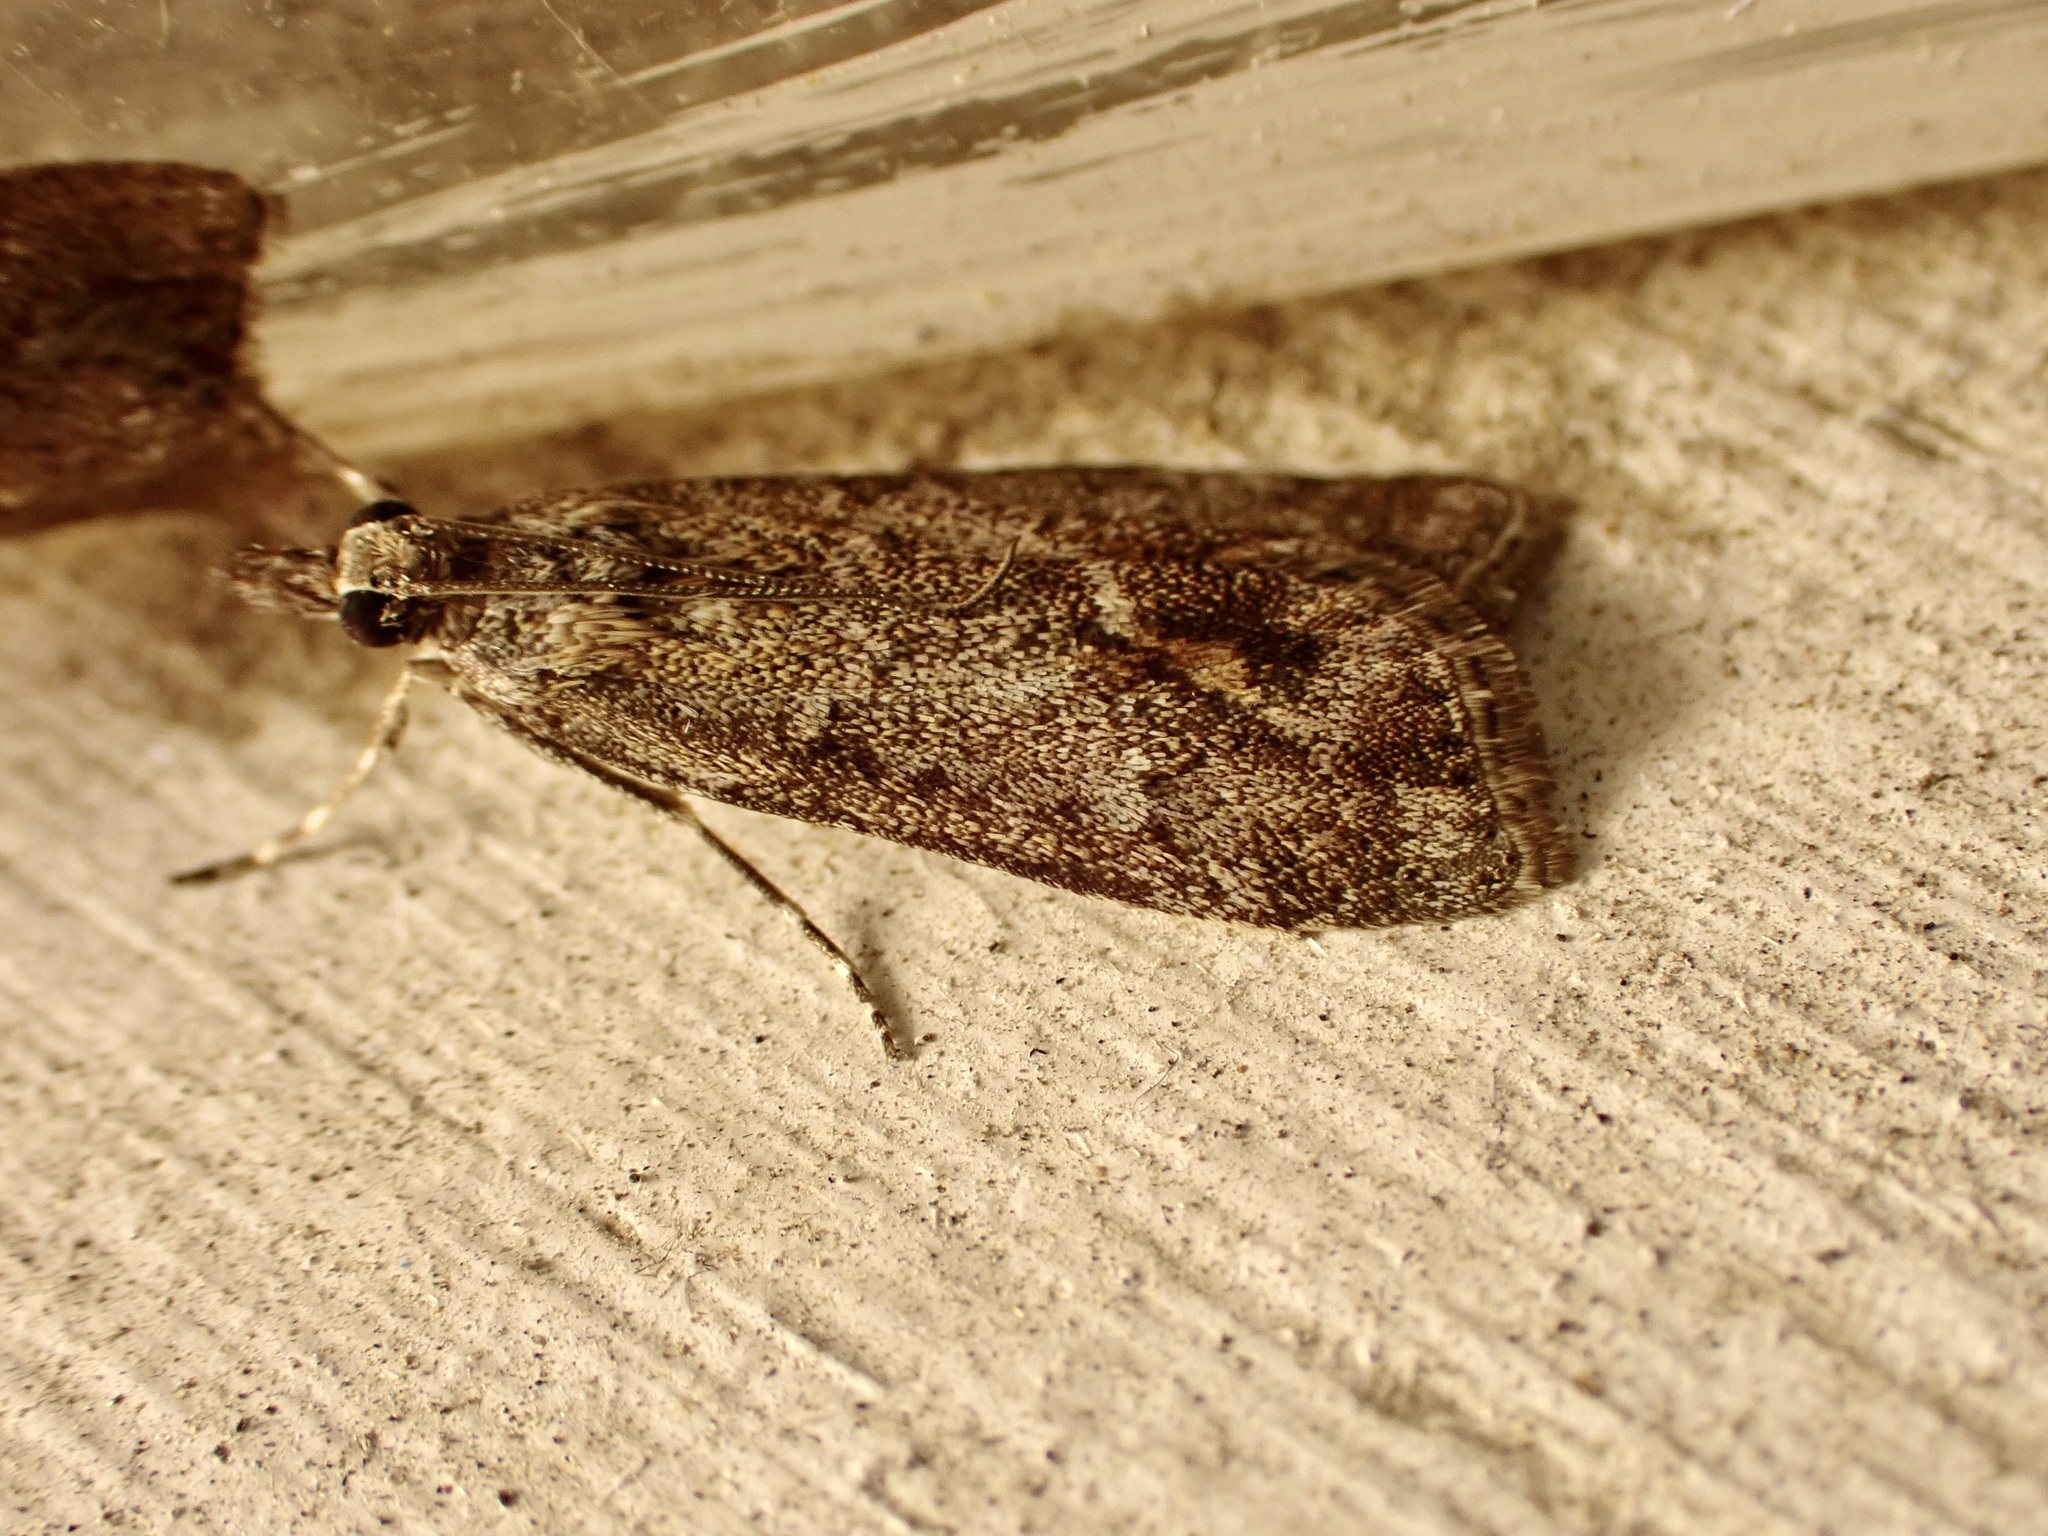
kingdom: Animalia
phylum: Arthropoda
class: Insecta
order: Lepidoptera
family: Crambidae
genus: Eudonia
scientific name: Eudonia submarginalis
